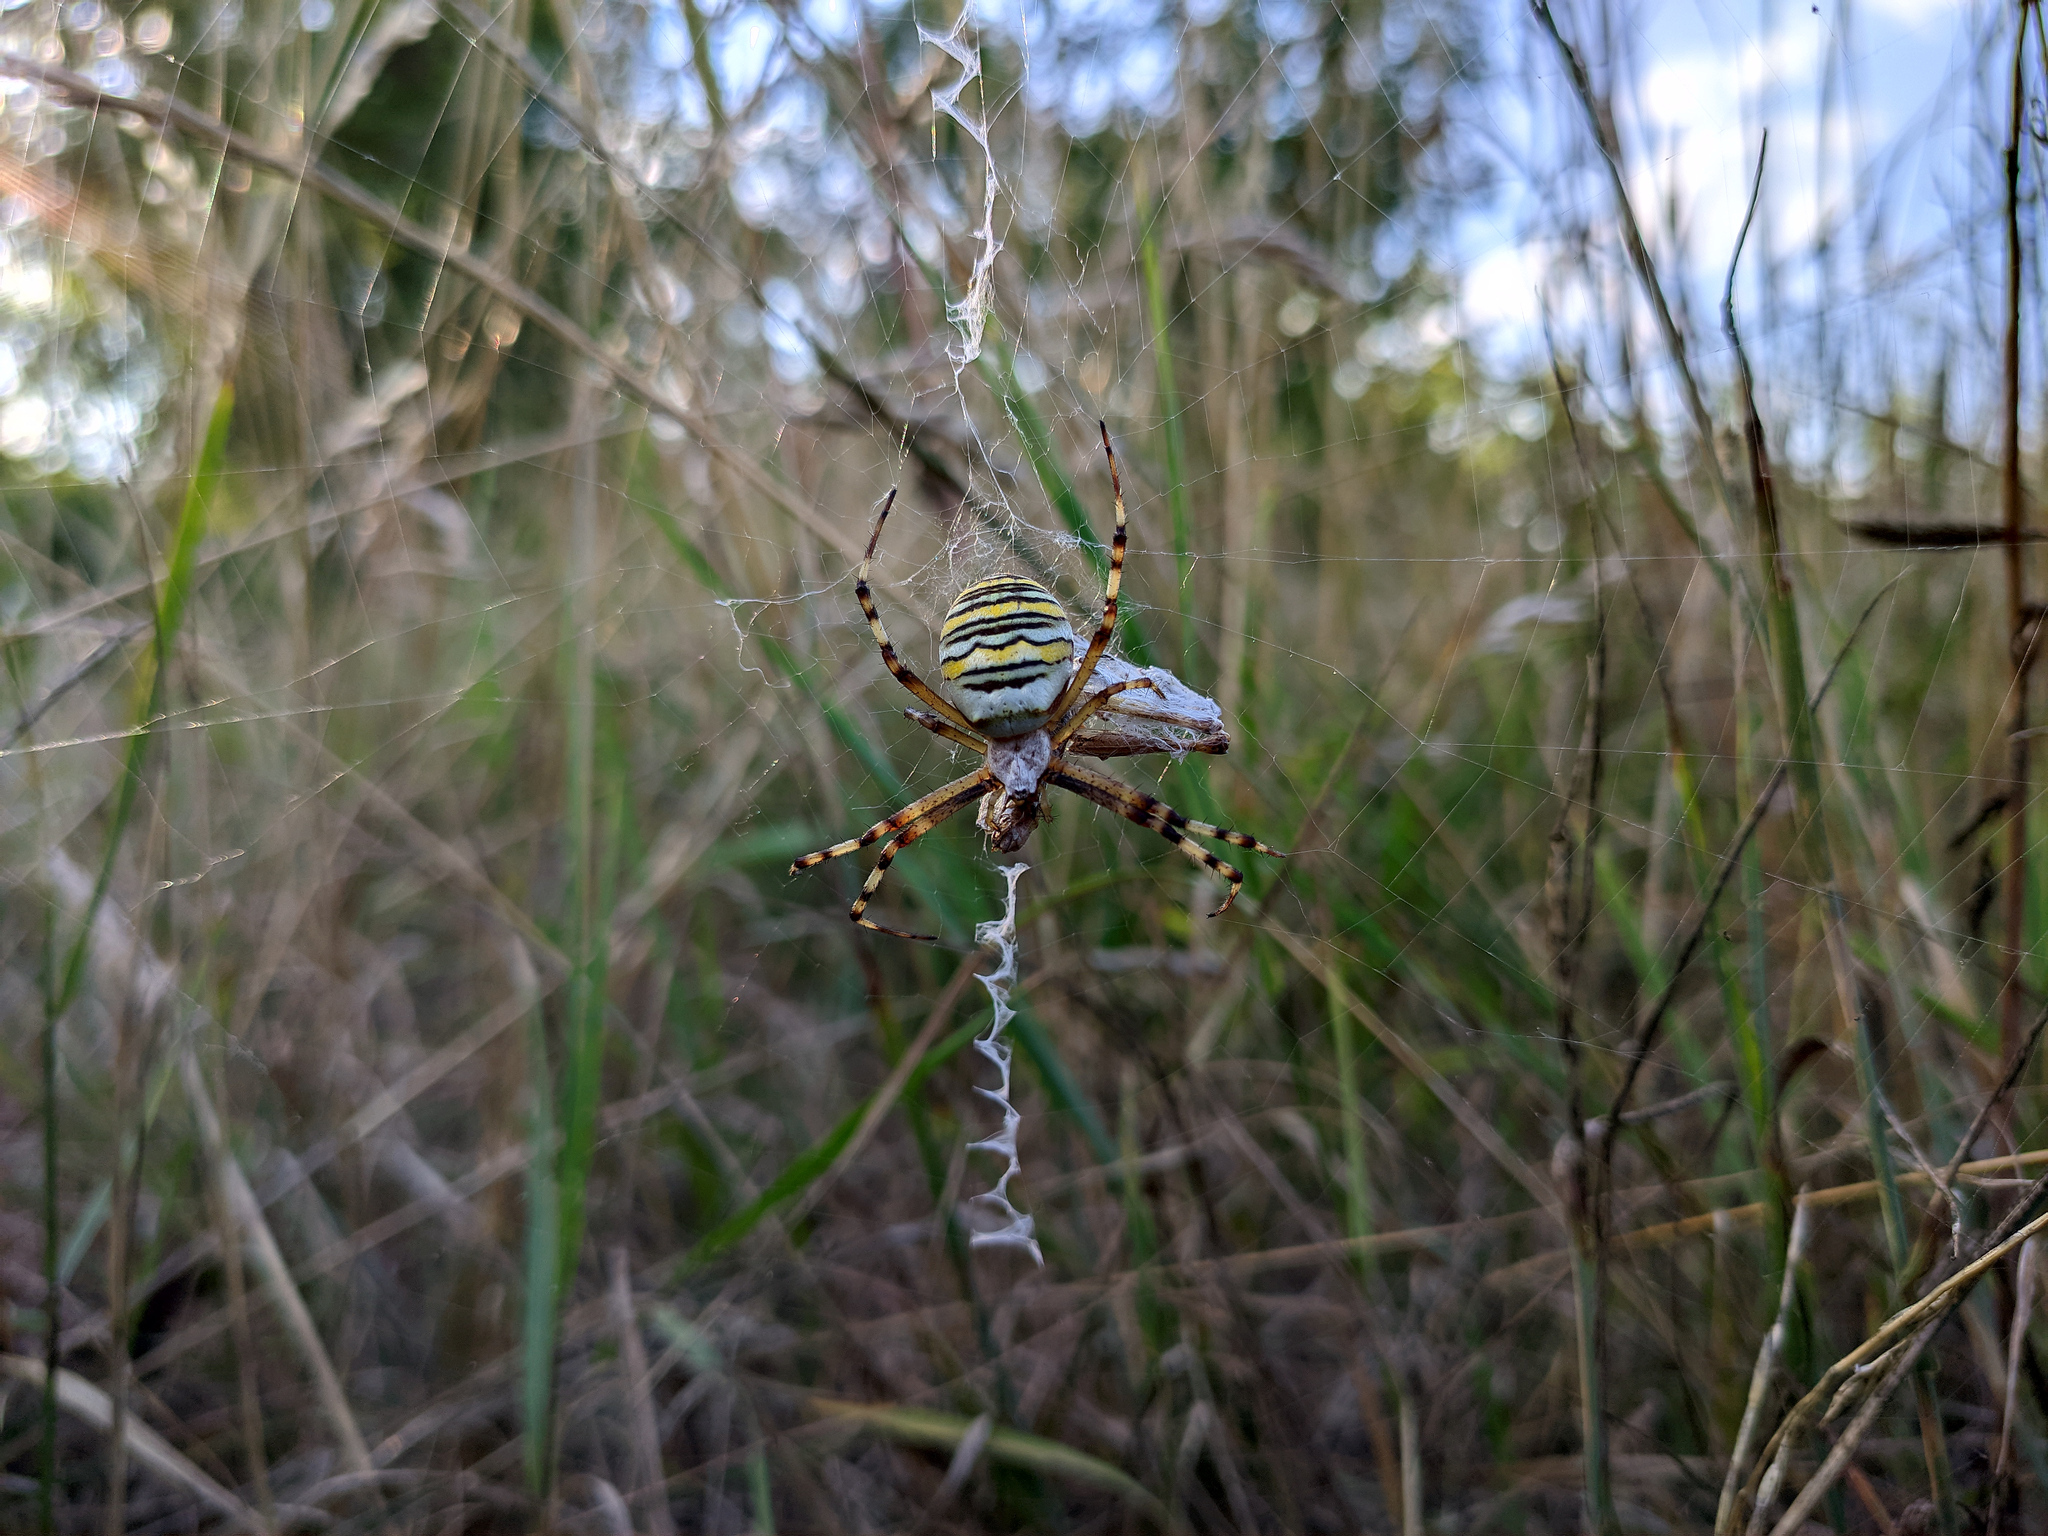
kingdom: Animalia
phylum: Arthropoda
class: Arachnida
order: Araneae
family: Araneidae
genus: Argiope
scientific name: Argiope bruennichi
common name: Wasp spider
